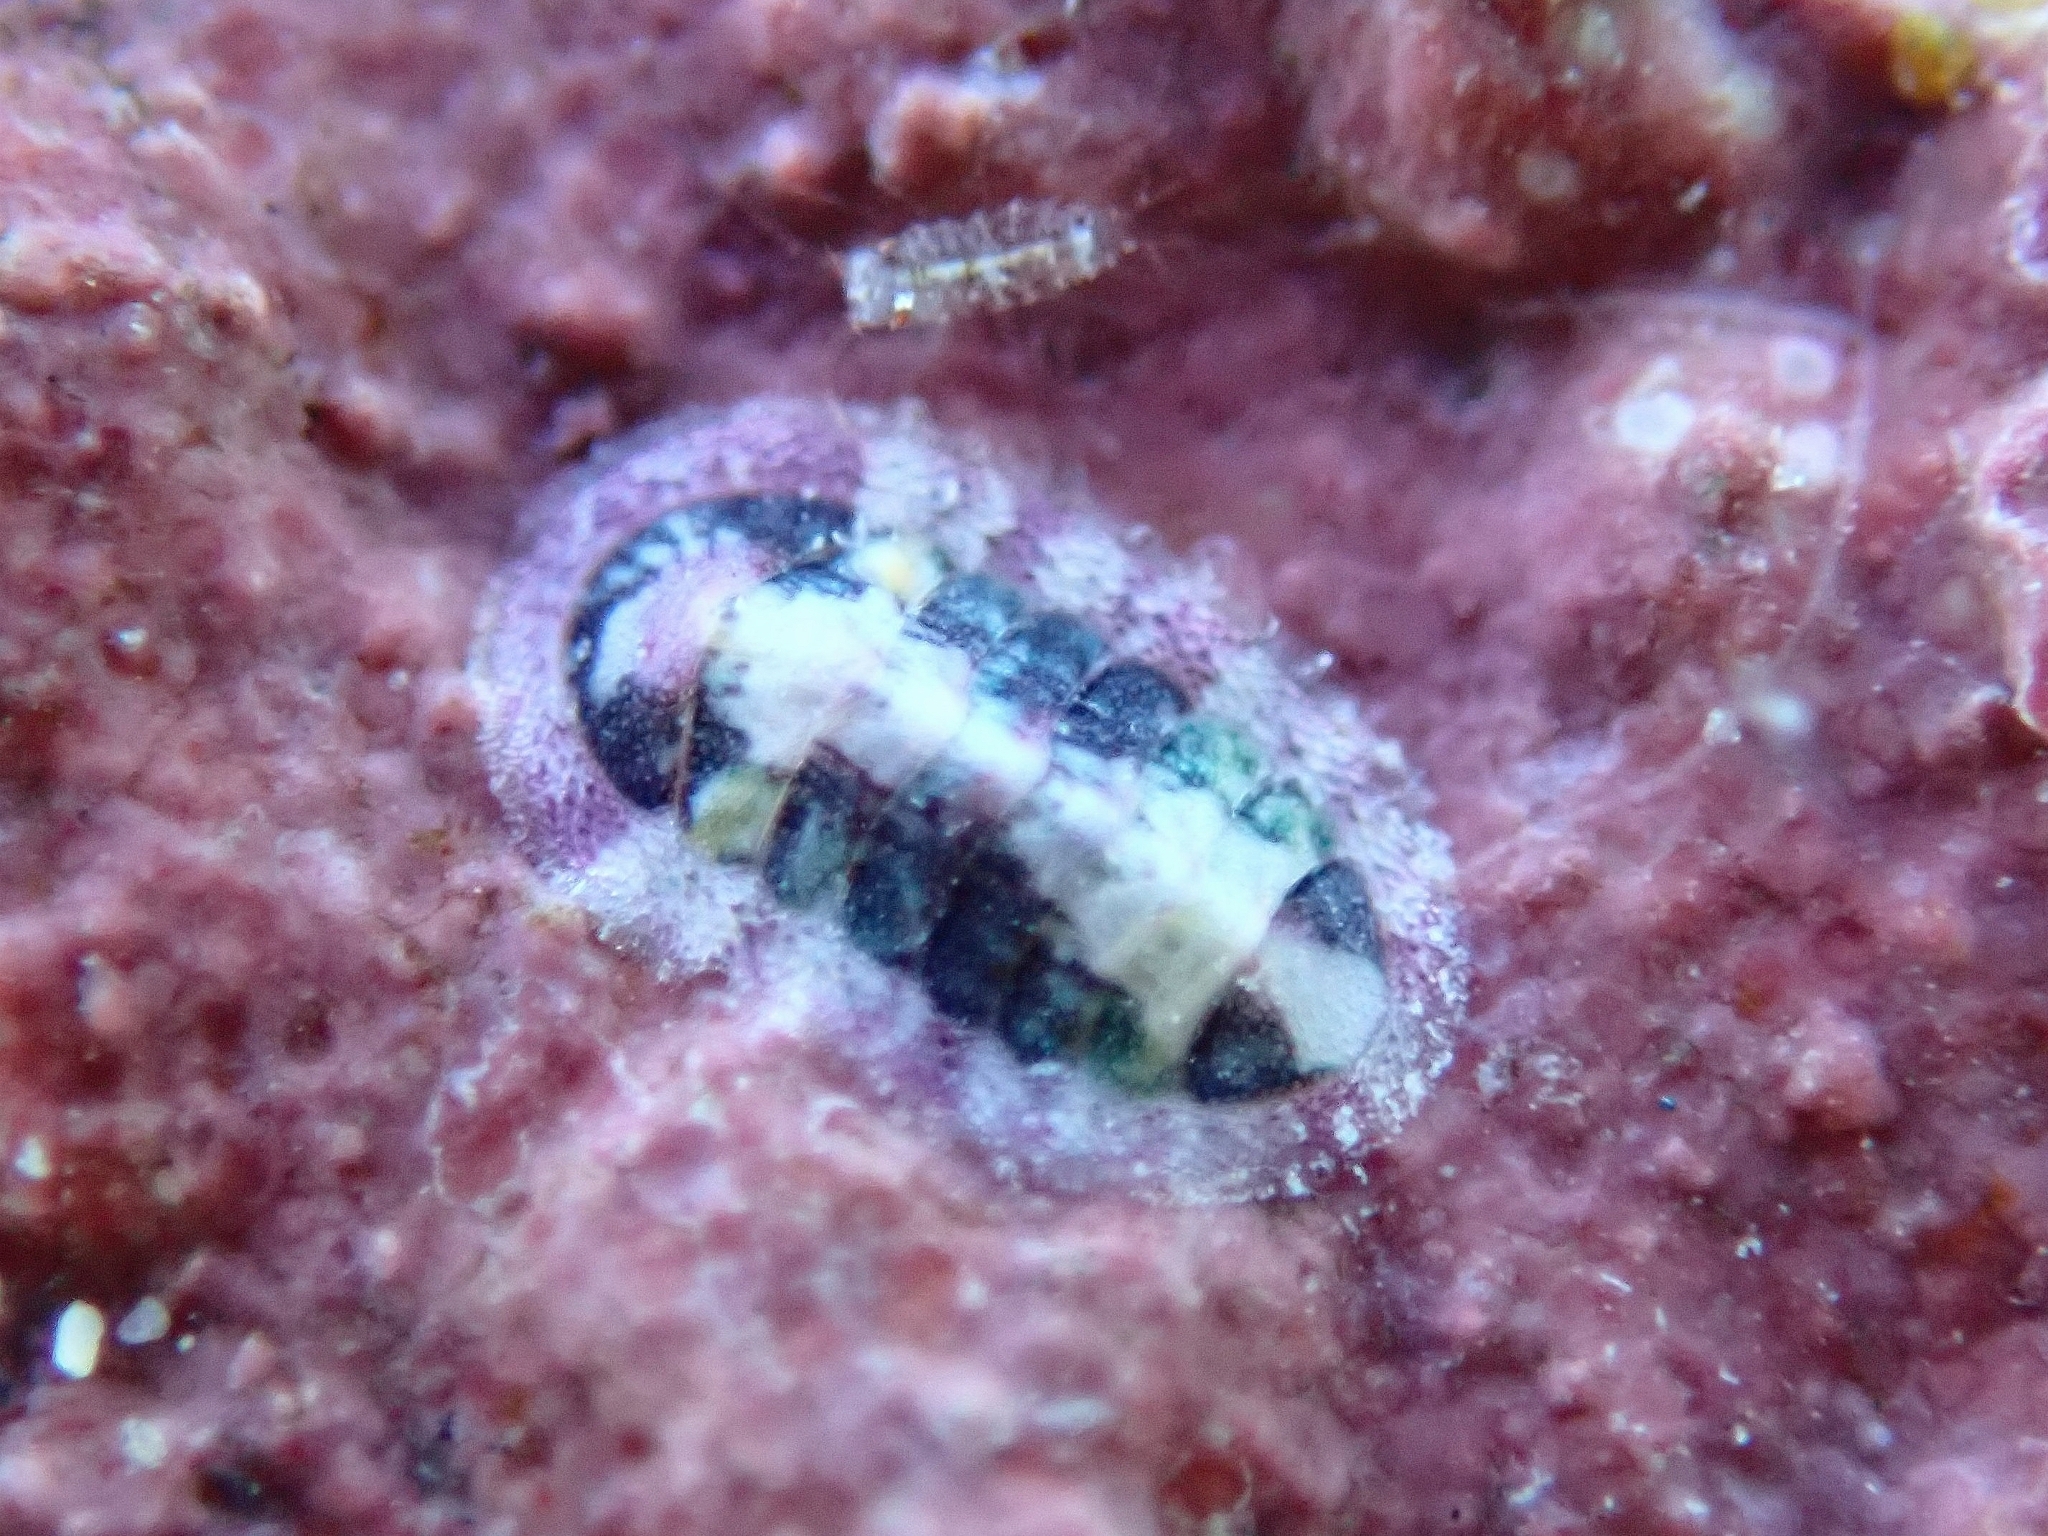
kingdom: Animalia
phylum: Mollusca
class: Polyplacophora
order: Chitonida
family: Chitonidae
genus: Rhyssoplax
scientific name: Rhyssoplax canariensis
